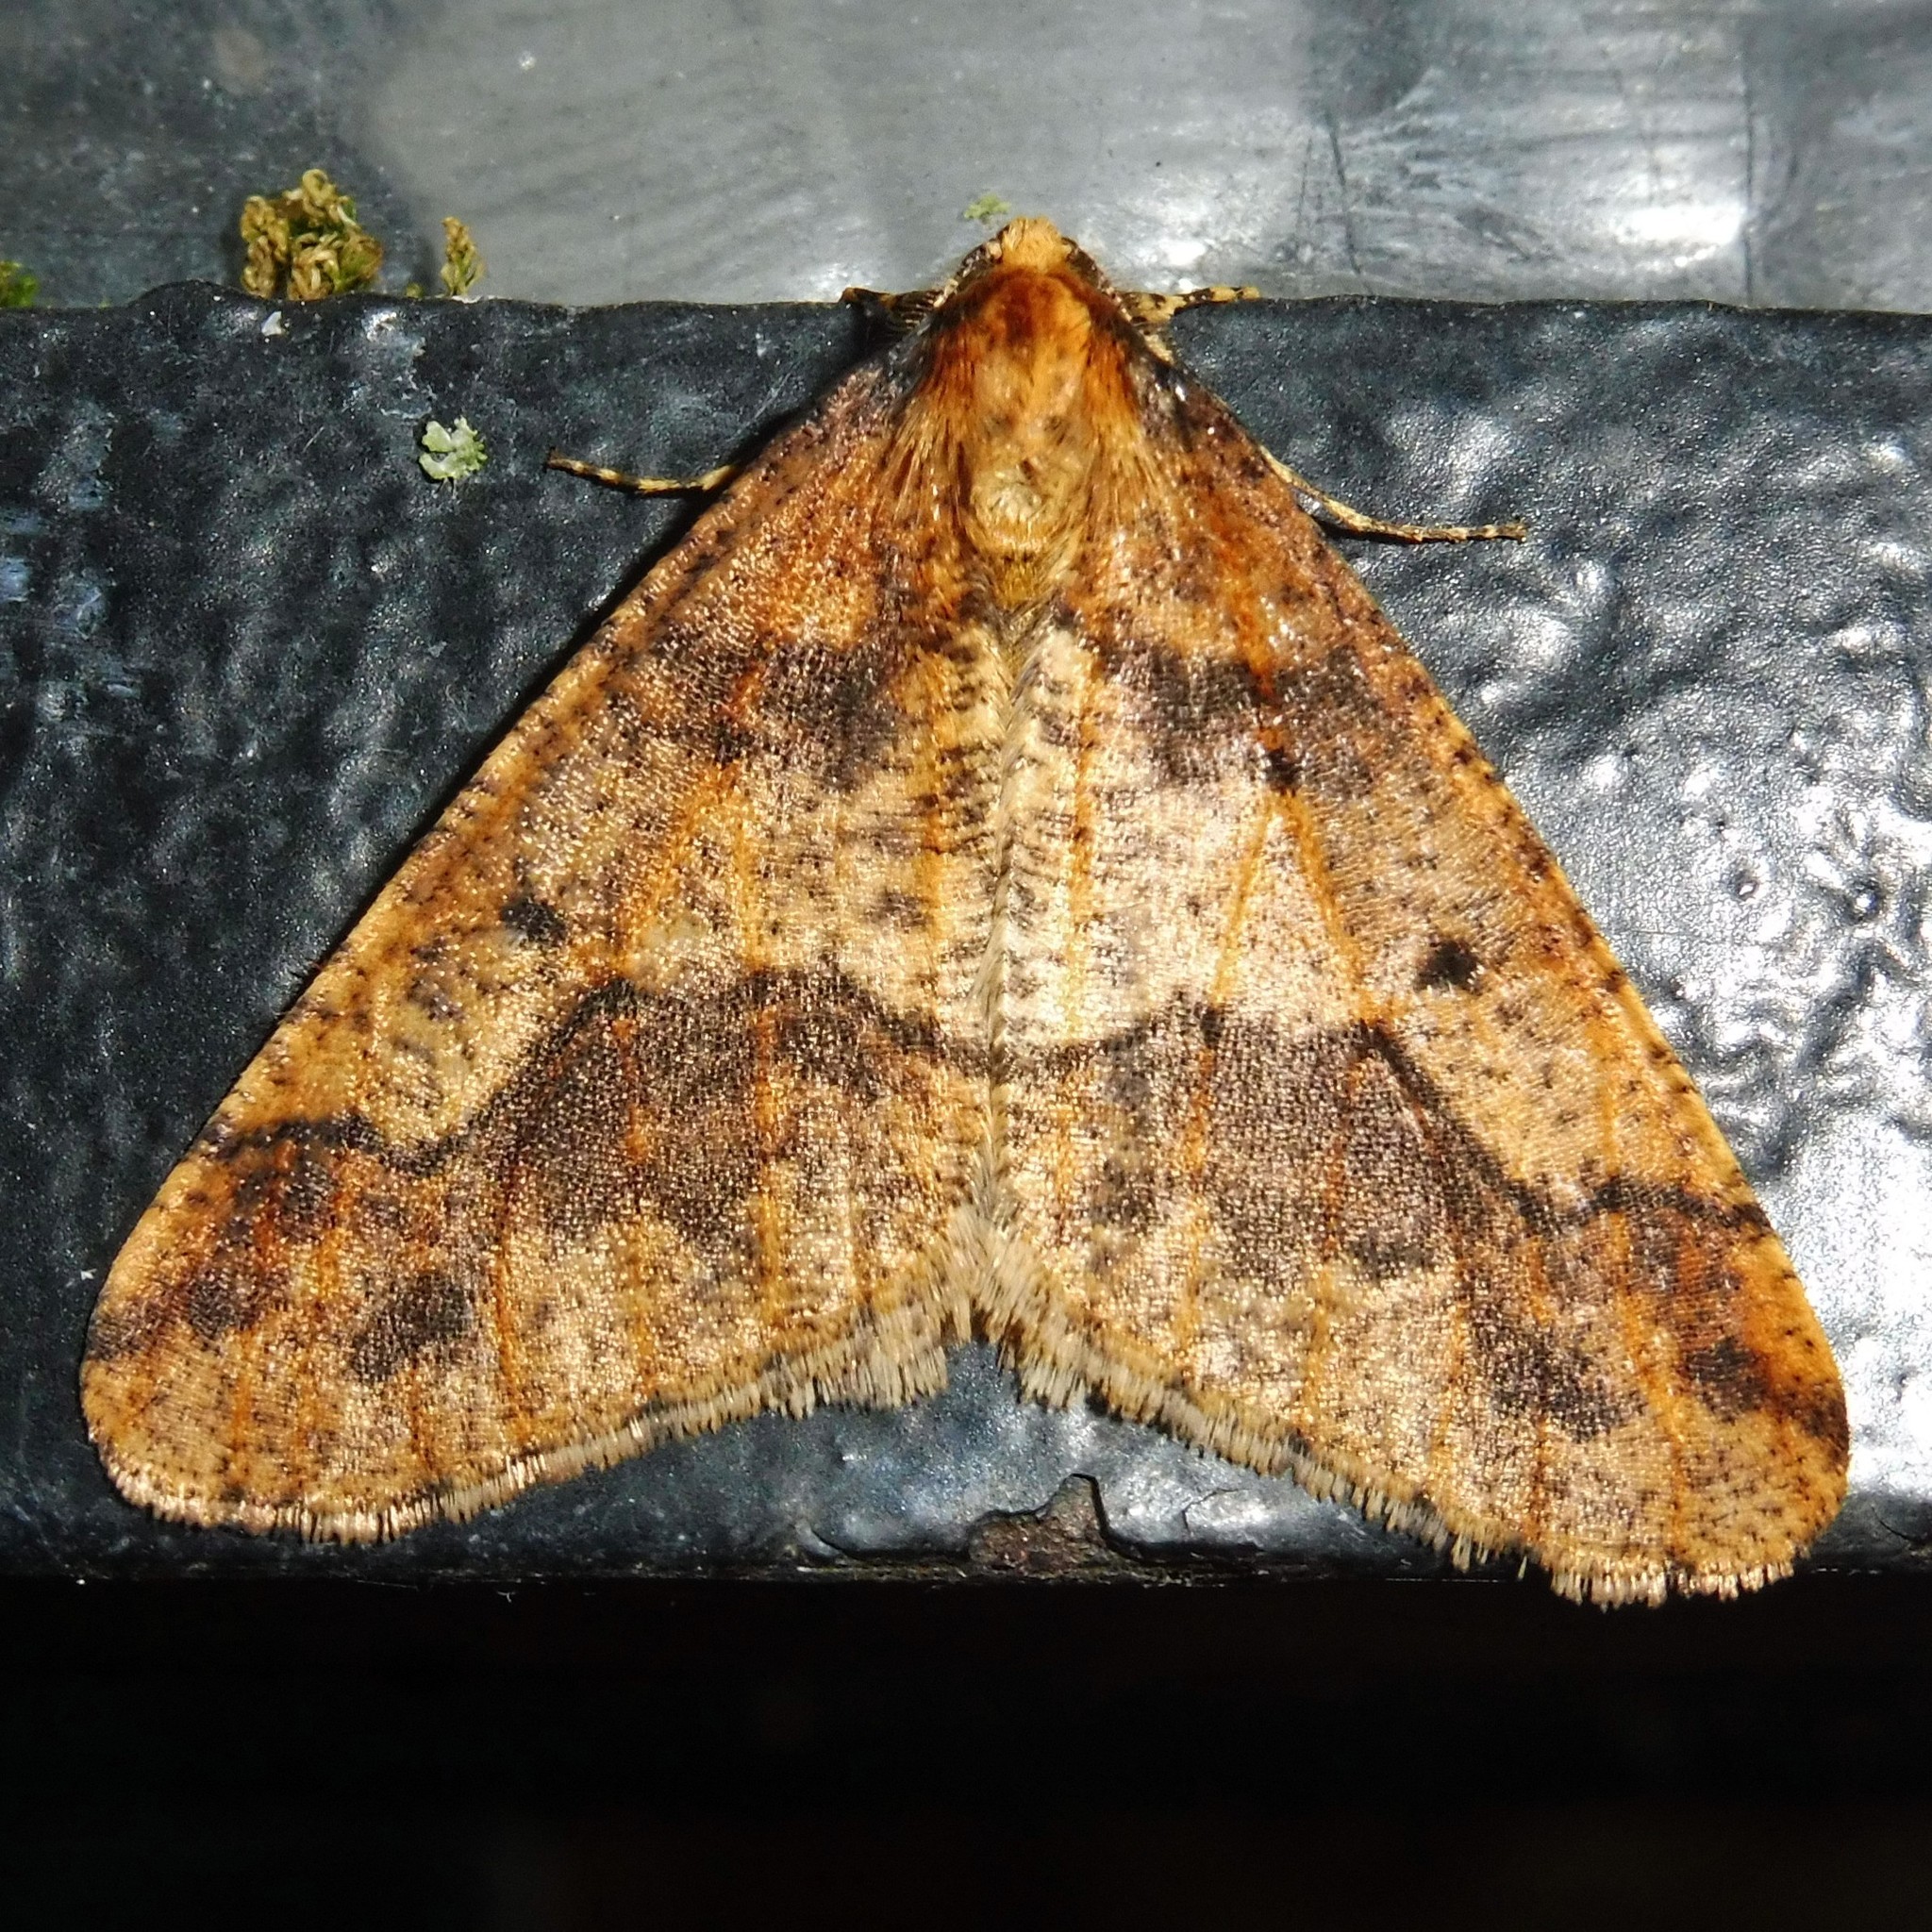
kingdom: Animalia
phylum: Arthropoda
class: Insecta
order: Lepidoptera
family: Geometridae
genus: Erannis
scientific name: Erannis defoliaria
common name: Mottled umber
